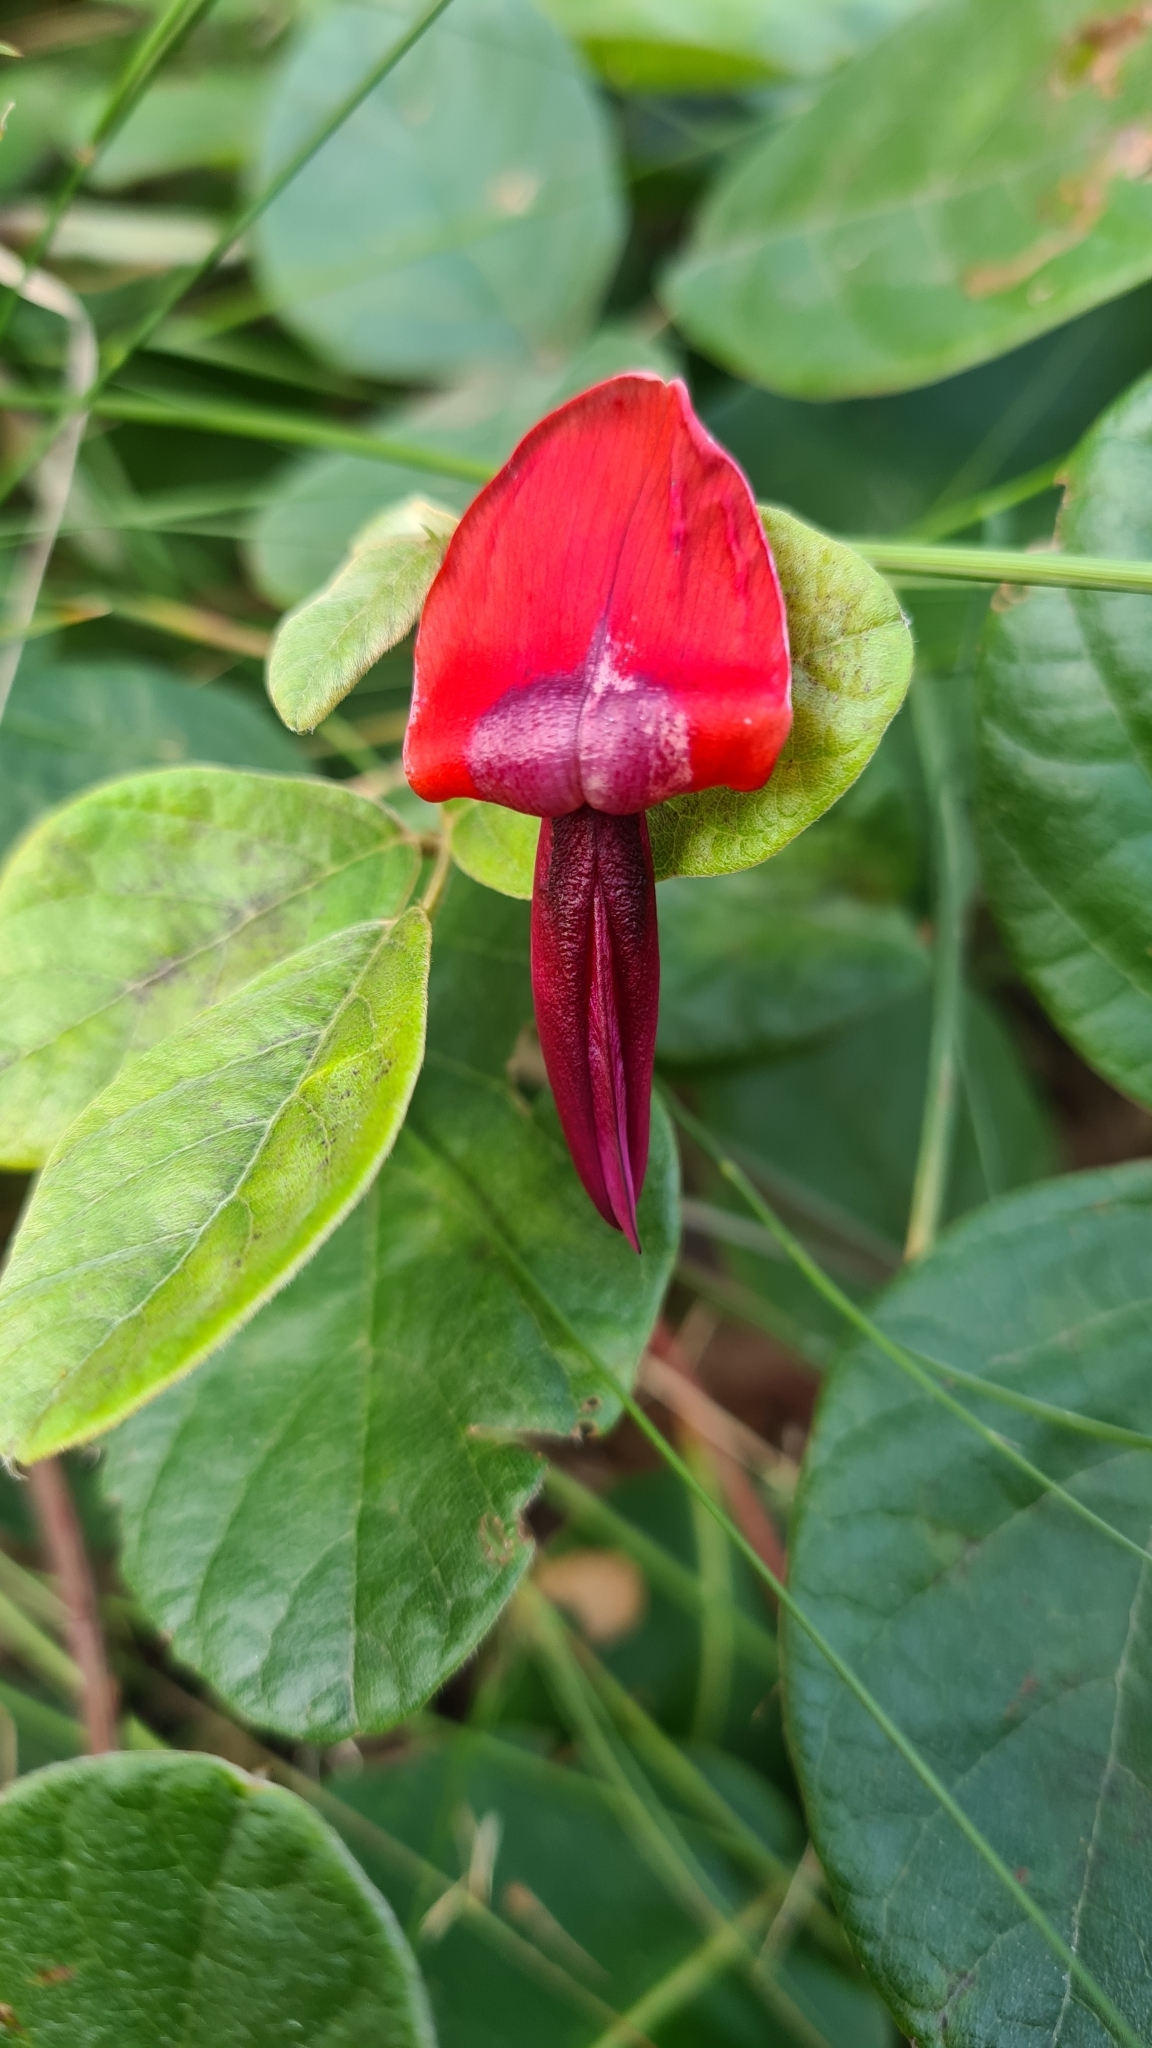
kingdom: Plantae
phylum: Tracheophyta
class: Magnoliopsida
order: Fabales
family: Fabaceae
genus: Kennedia
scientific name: Kennedia rubicunda
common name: Red kennedy-pea
